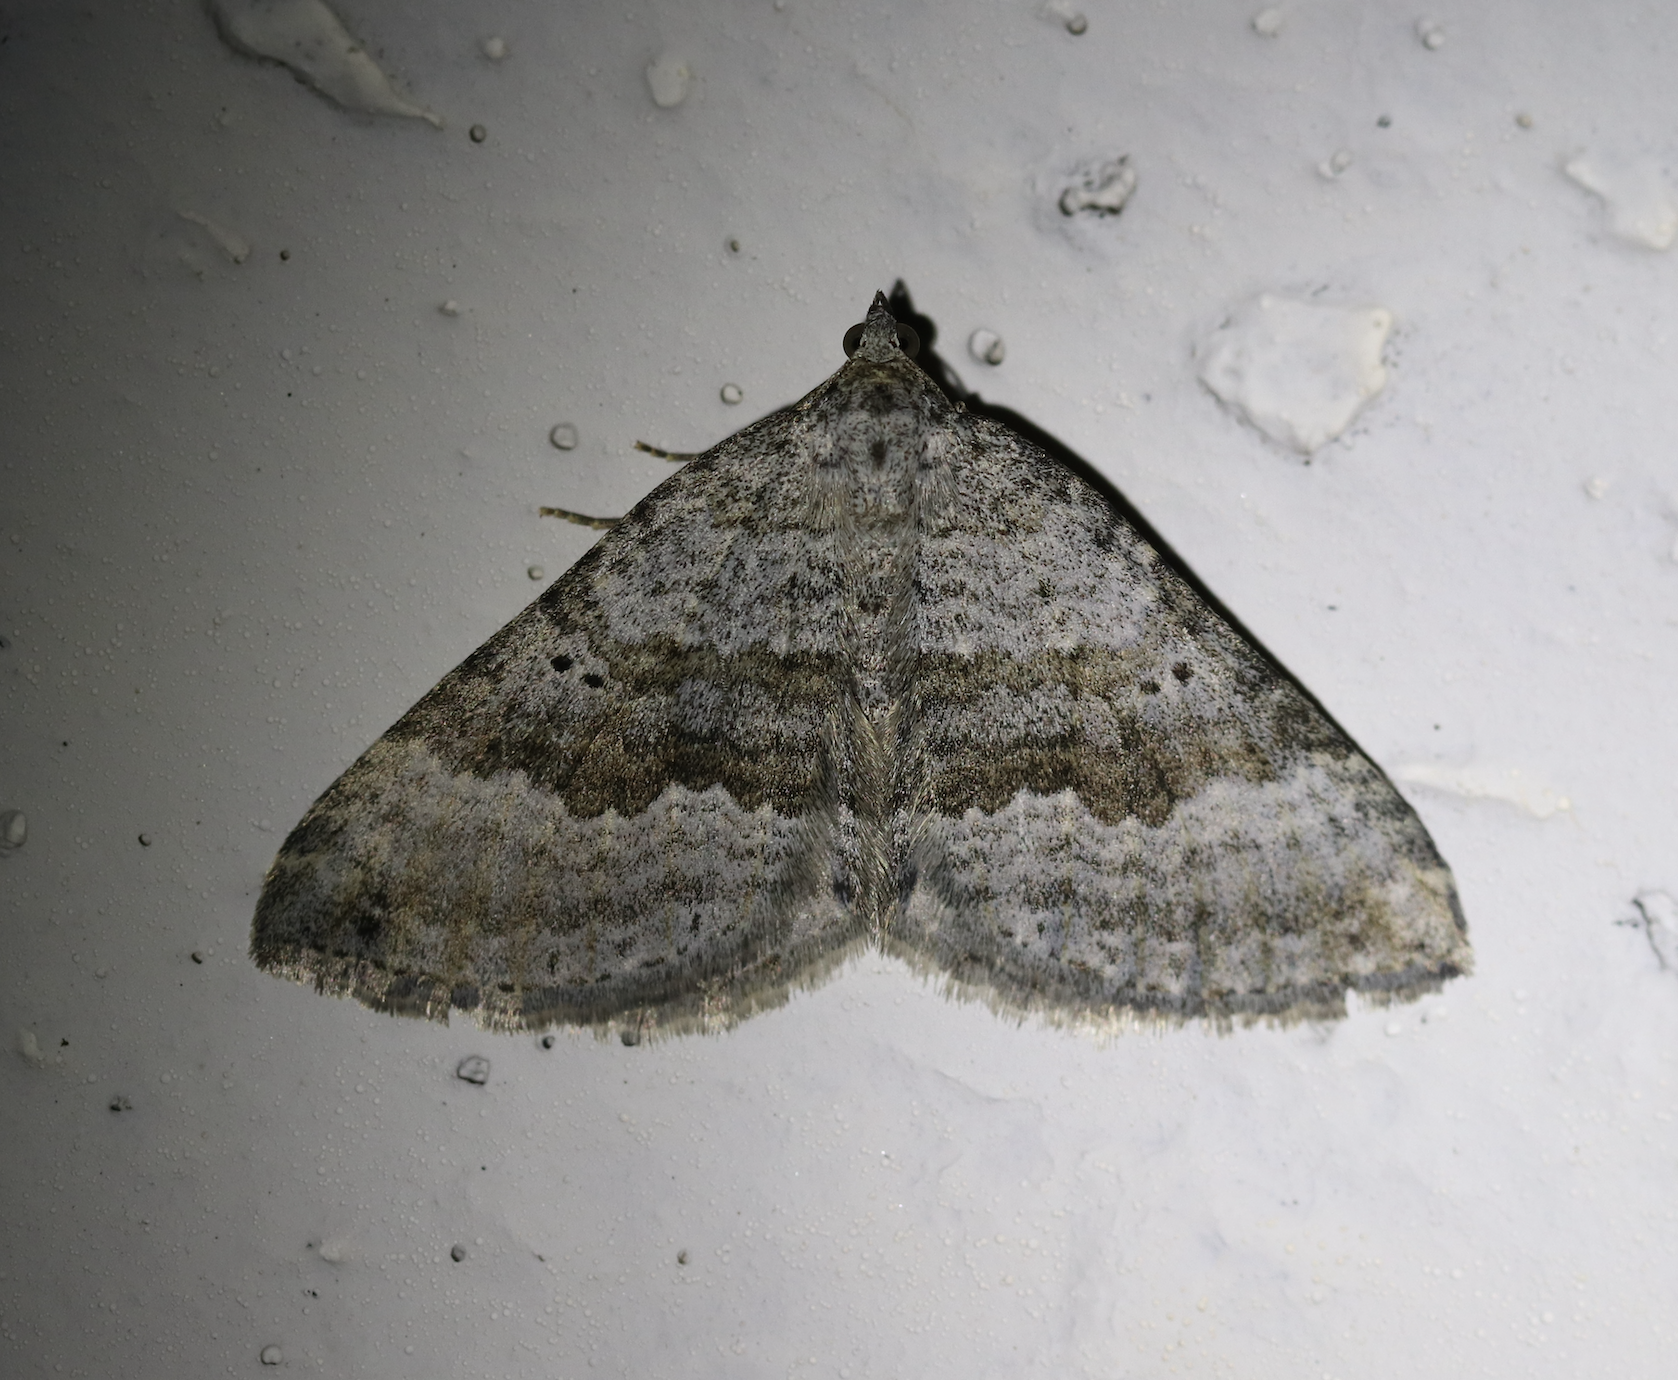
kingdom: Animalia
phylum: Arthropoda
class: Insecta
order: Lepidoptera
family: Geometridae
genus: Scotopteryx
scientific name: Scotopteryx bipunctaria
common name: Chalk carpet
